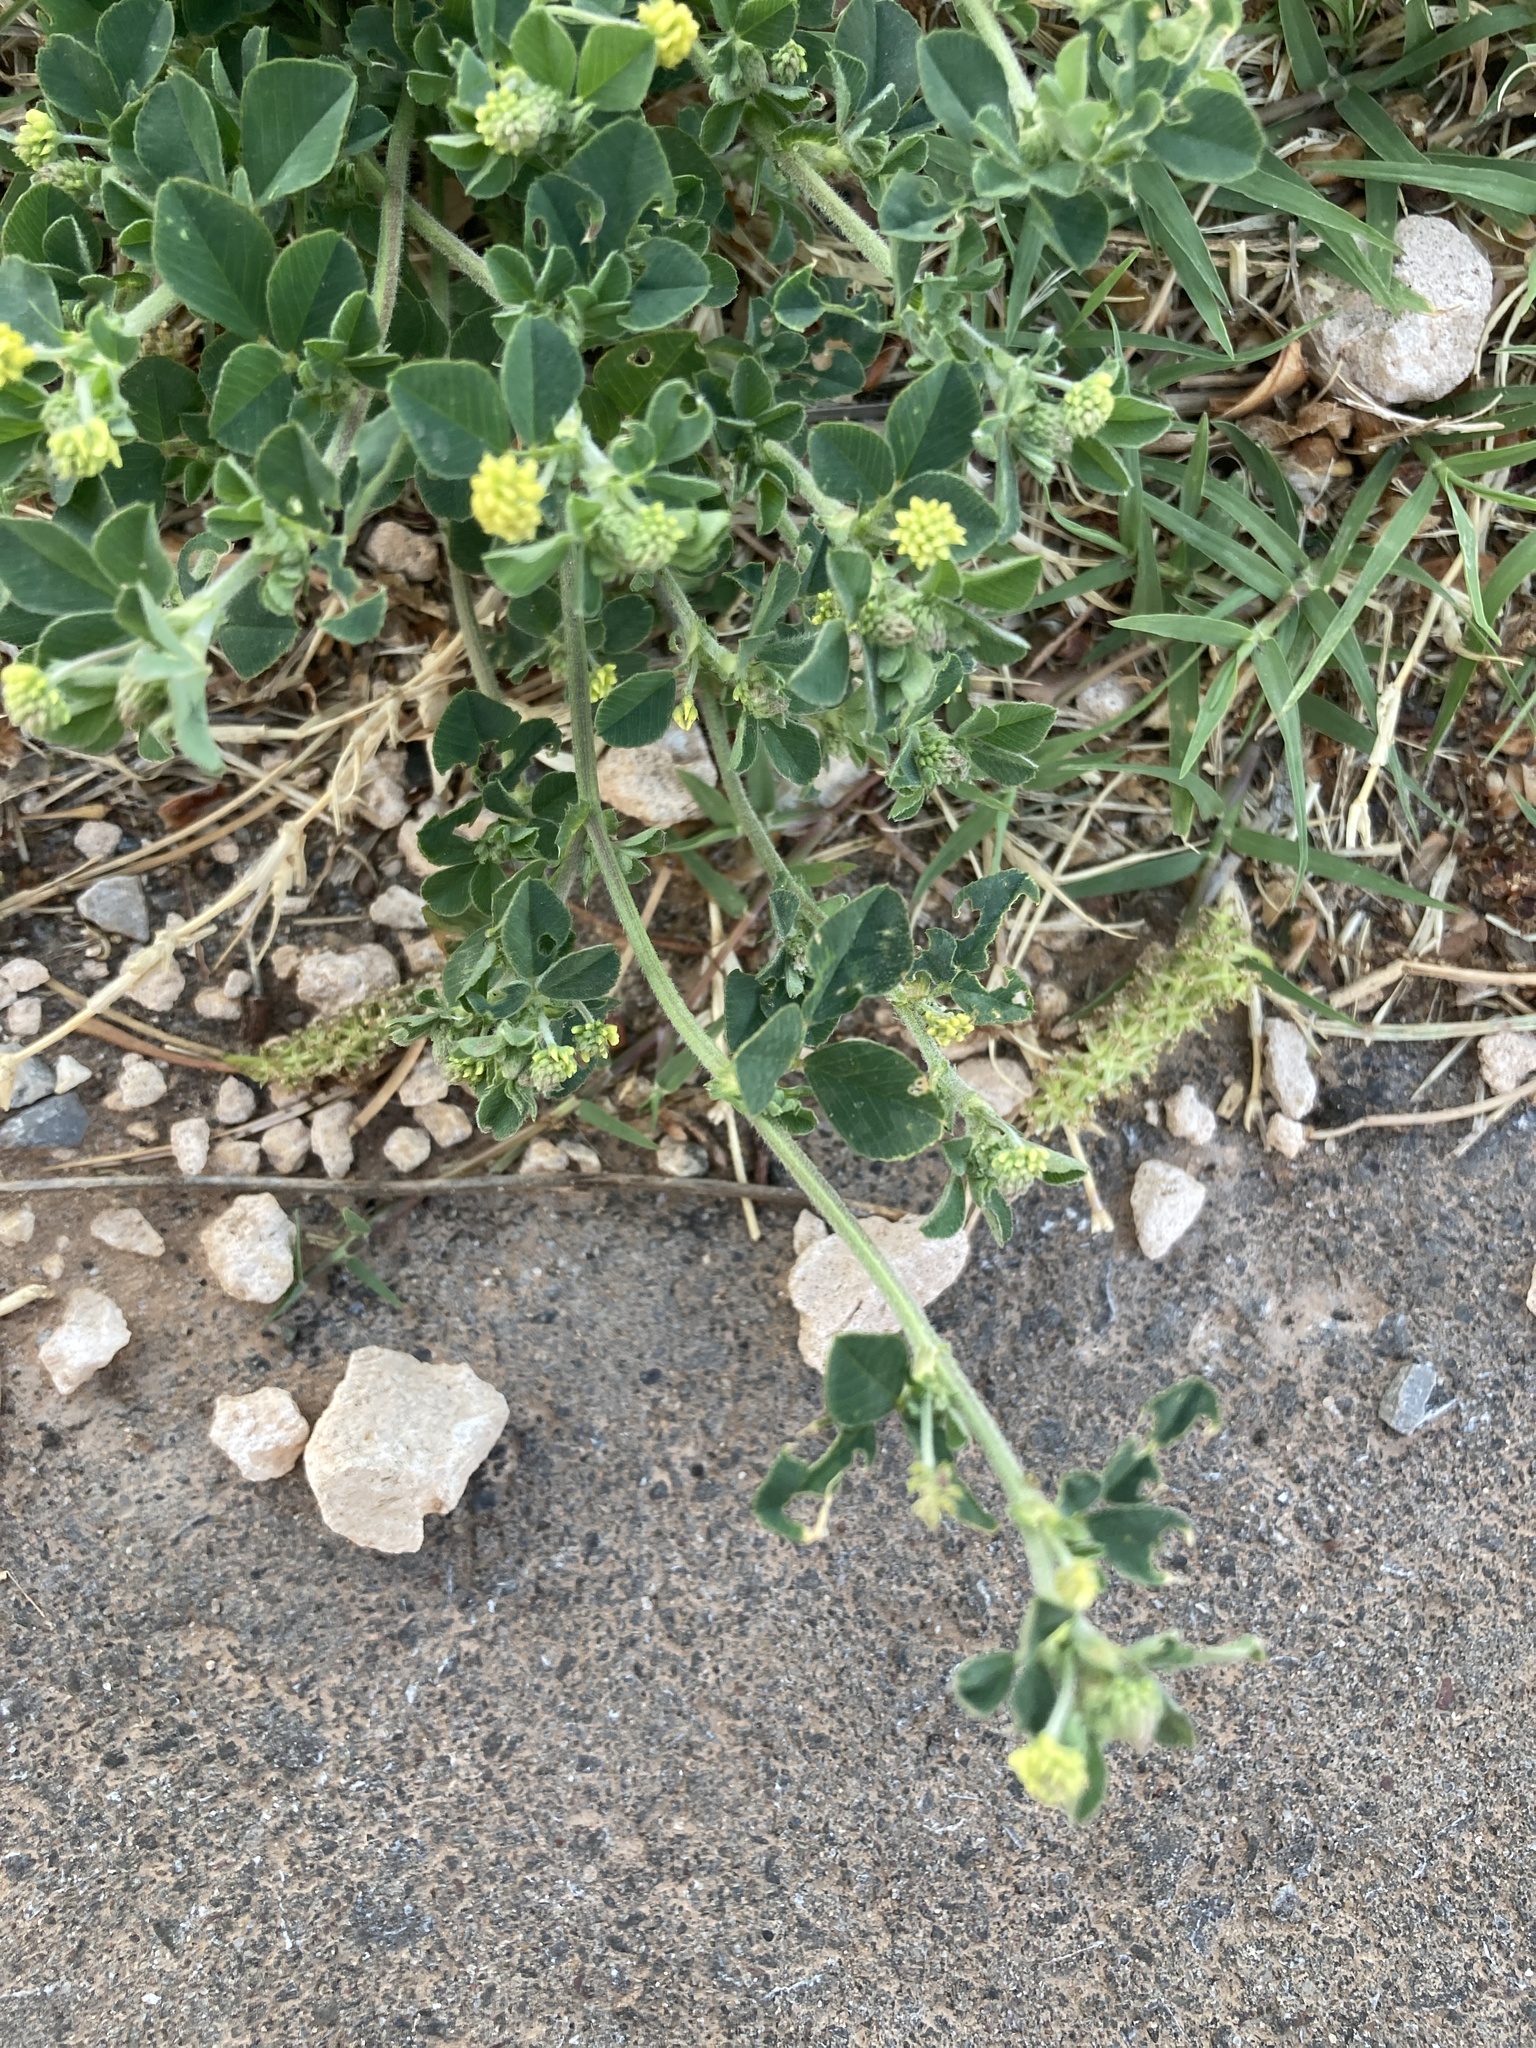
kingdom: Plantae
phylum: Tracheophyta
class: Magnoliopsida
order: Fabales
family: Fabaceae
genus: Medicago
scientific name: Medicago lupulina
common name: Black medick
